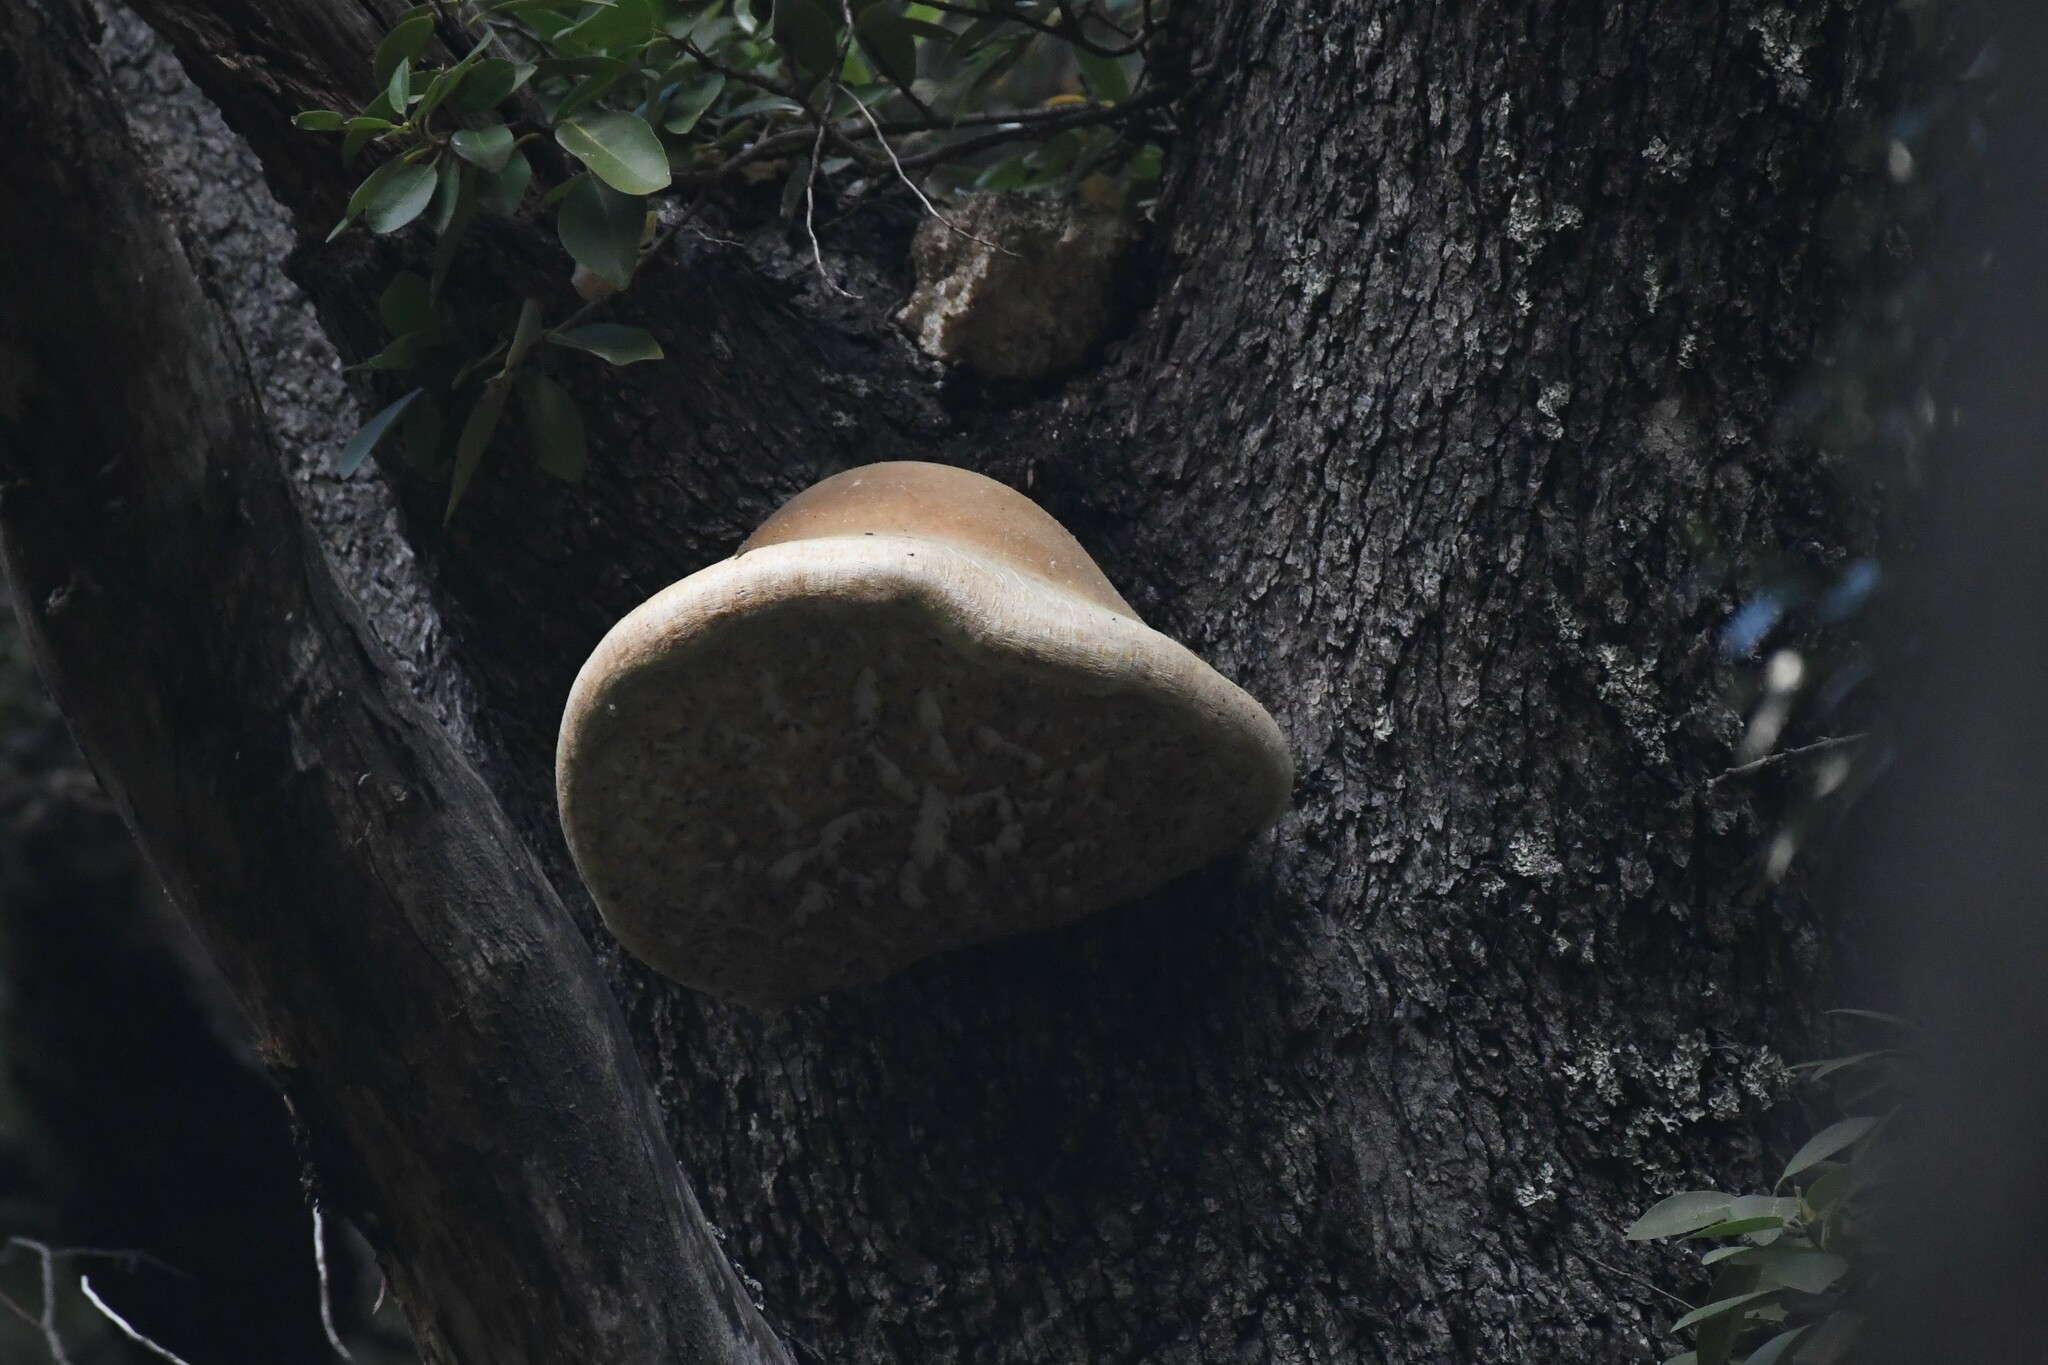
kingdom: Fungi
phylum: Basidiomycota
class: Agaricomycetes
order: Polyporales
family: Laetiporaceae
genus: Laetiporus
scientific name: Laetiporus portentosus
